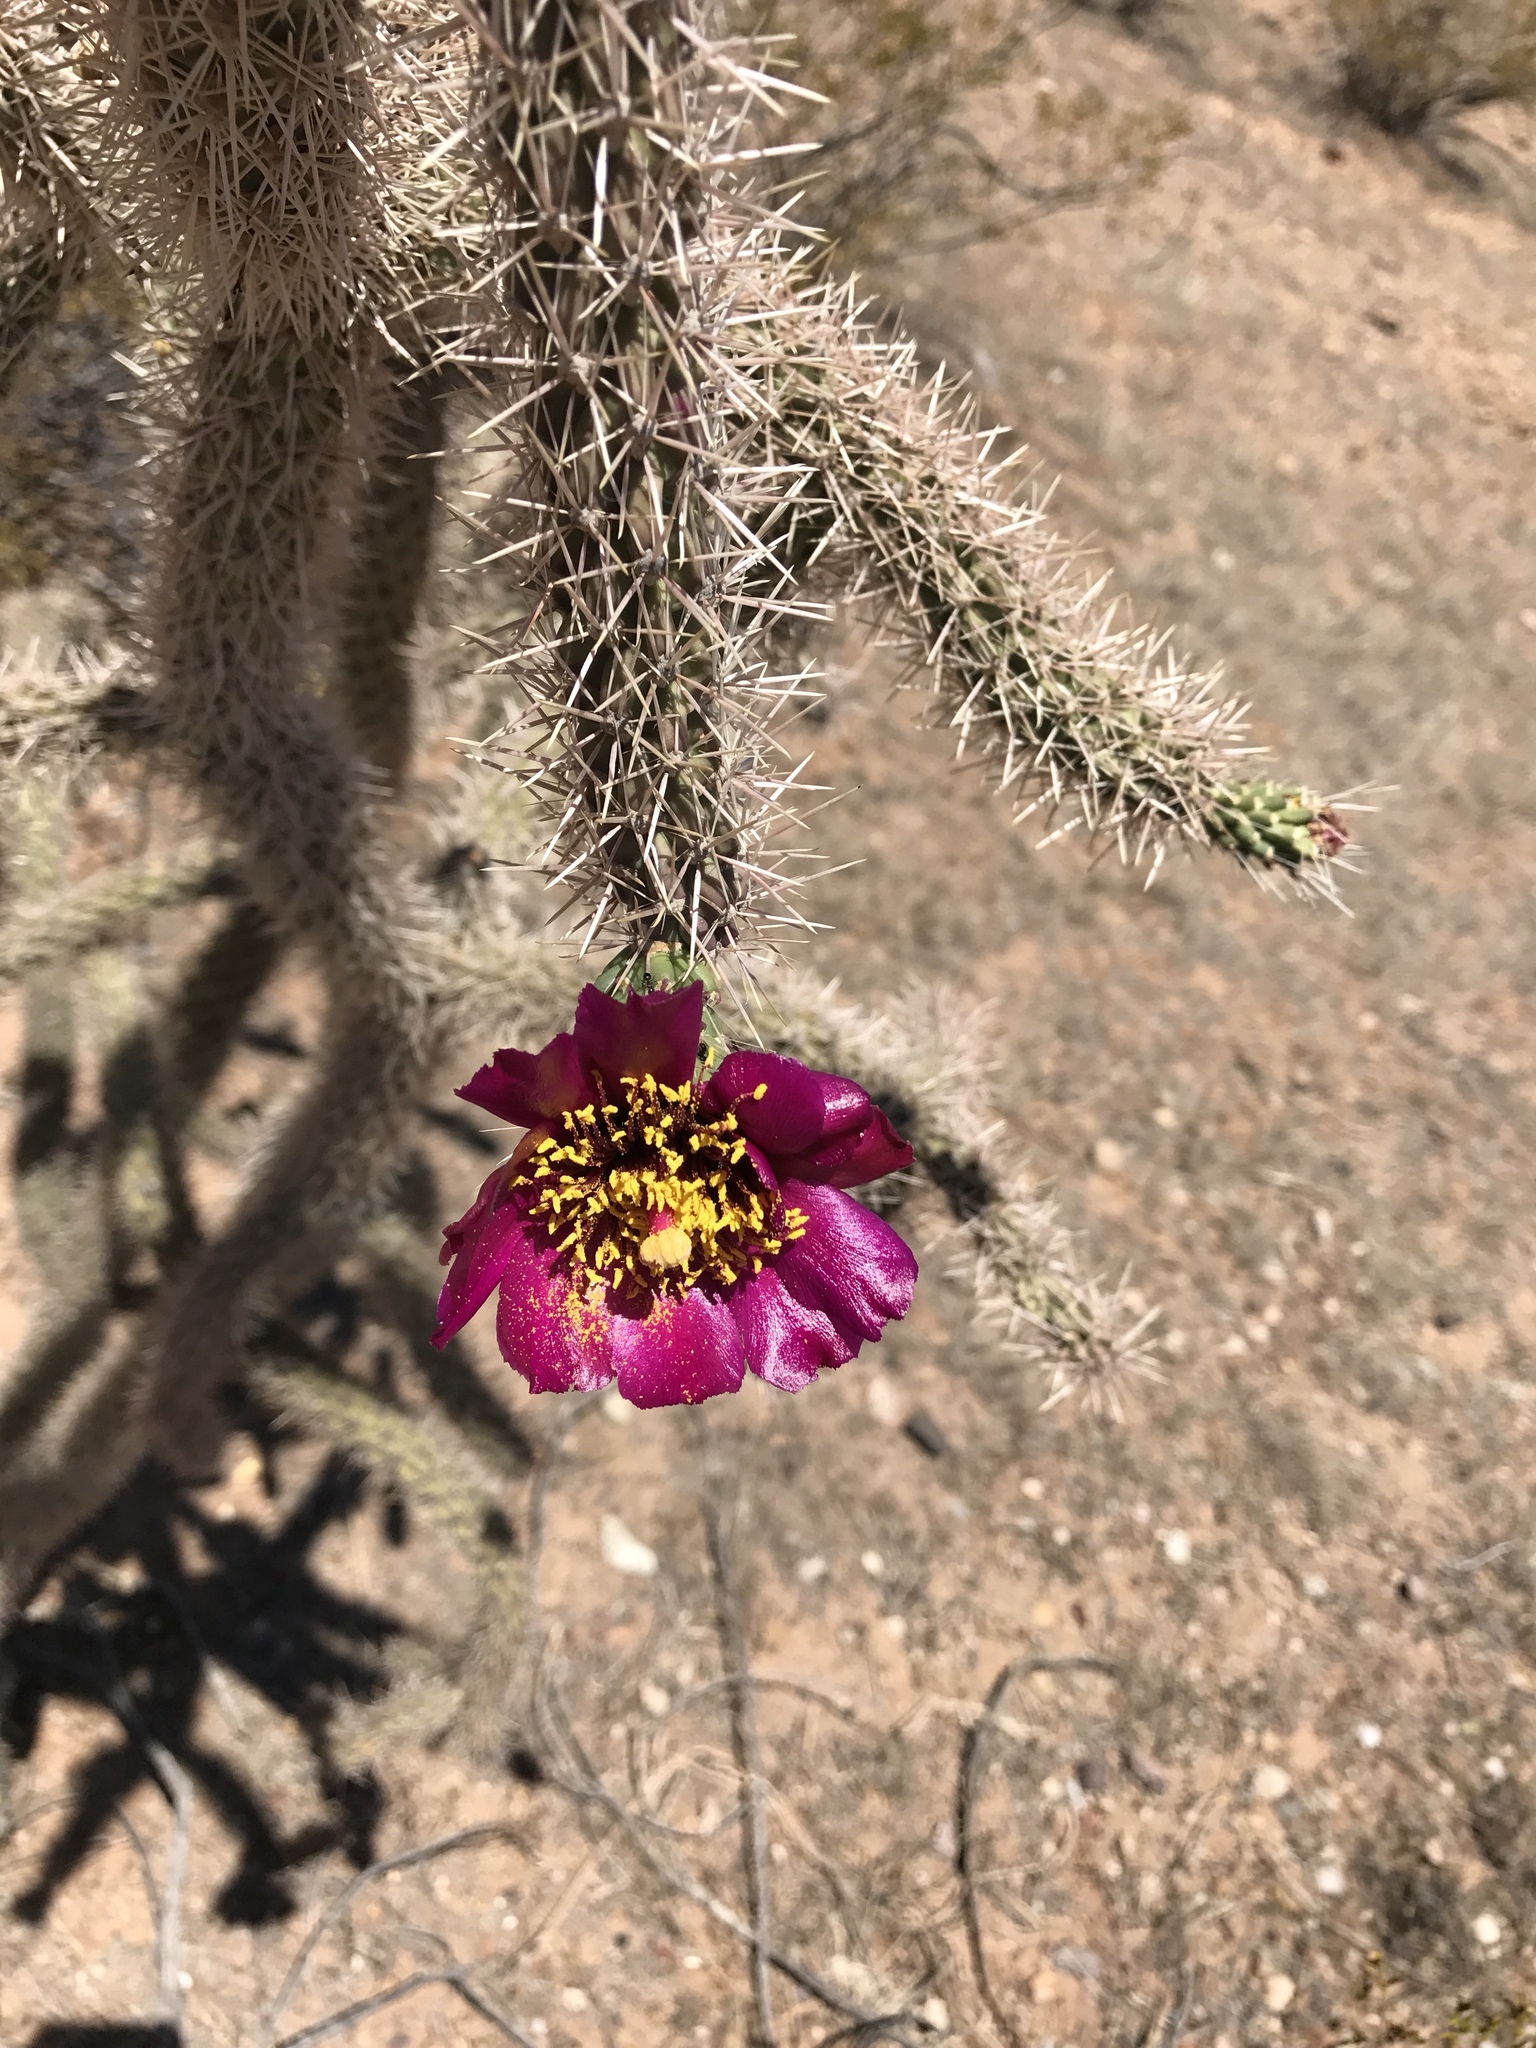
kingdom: Plantae
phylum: Tracheophyta
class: Magnoliopsida
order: Caryophyllales
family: Cactaceae
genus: Cylindropuntia
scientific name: Cylindropuntia imbricata
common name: Candelabrum cactus
